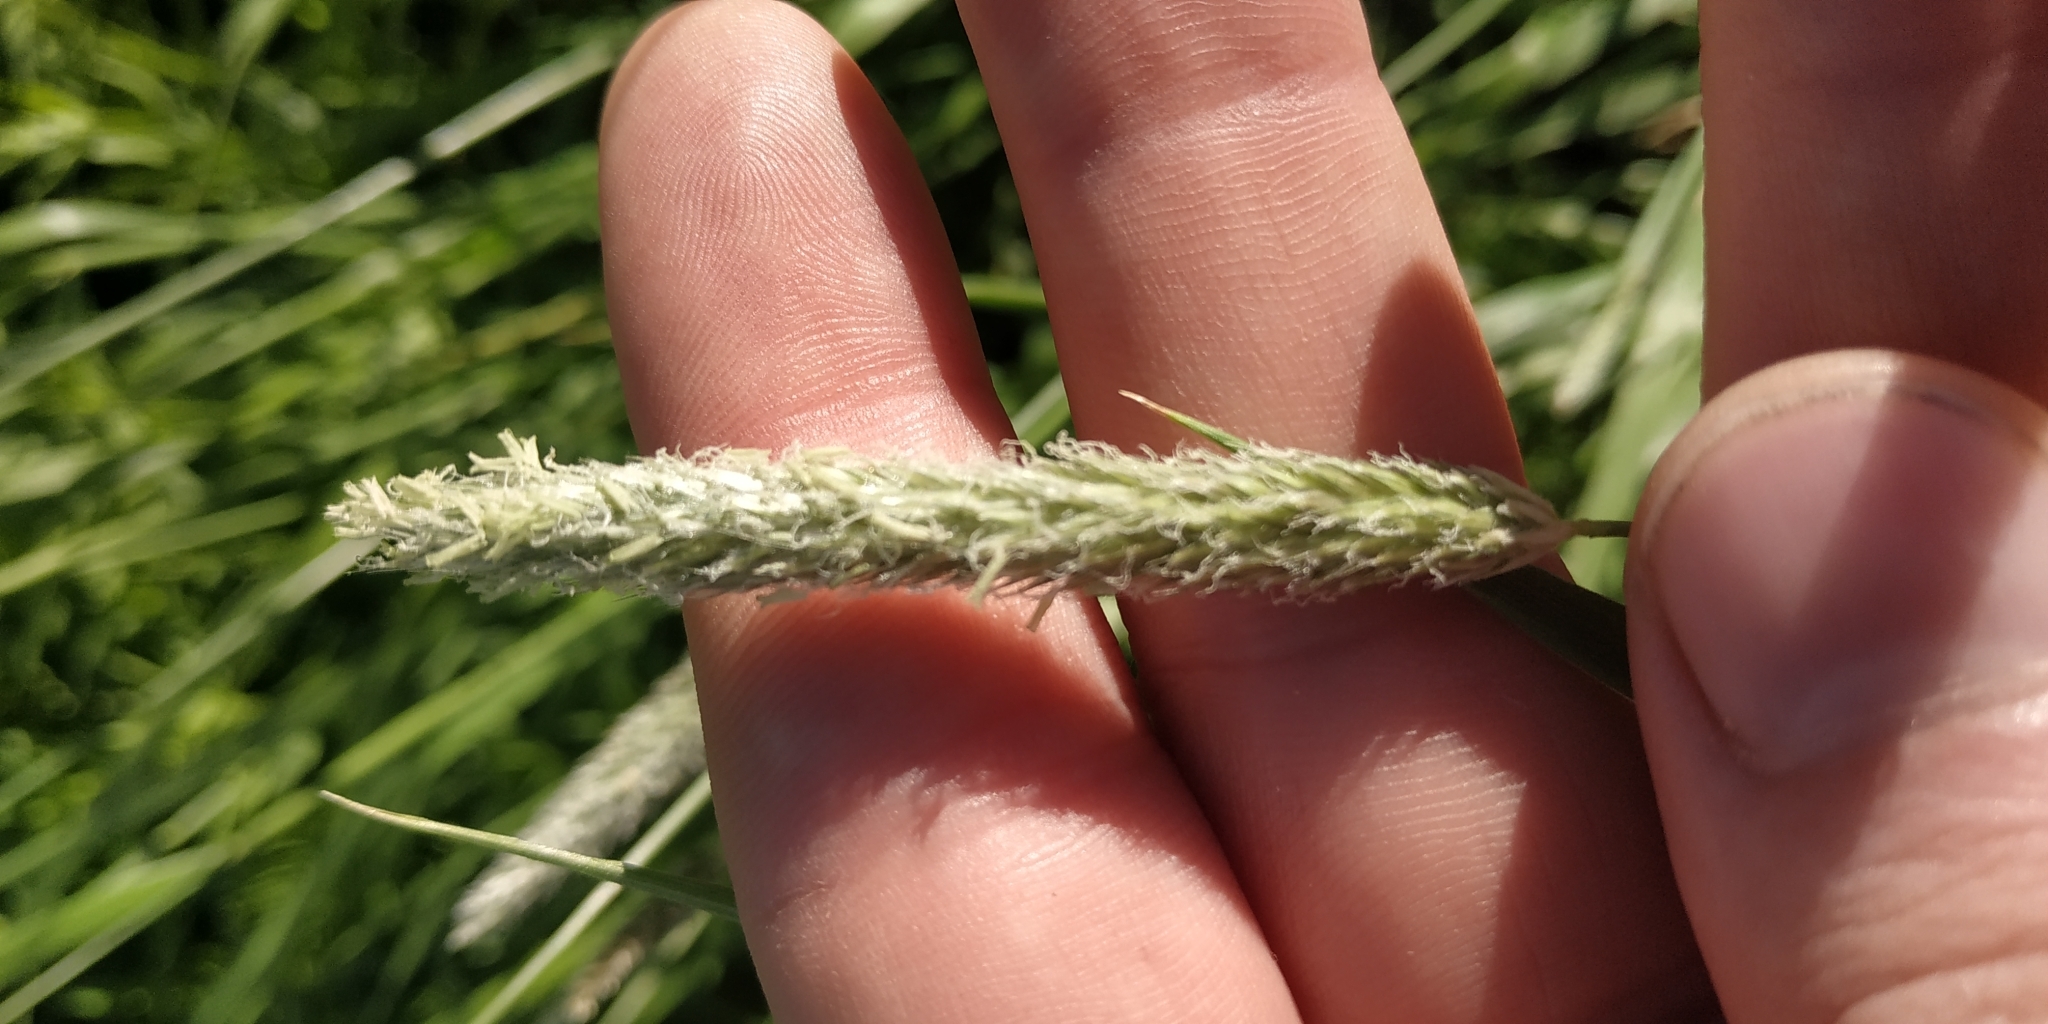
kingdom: Plantae
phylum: Tracheophyta
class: Liliopsida
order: Poales
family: Poaceae
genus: Alopecurus
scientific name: Alopecurus pratensis
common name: Meadow foxtail
